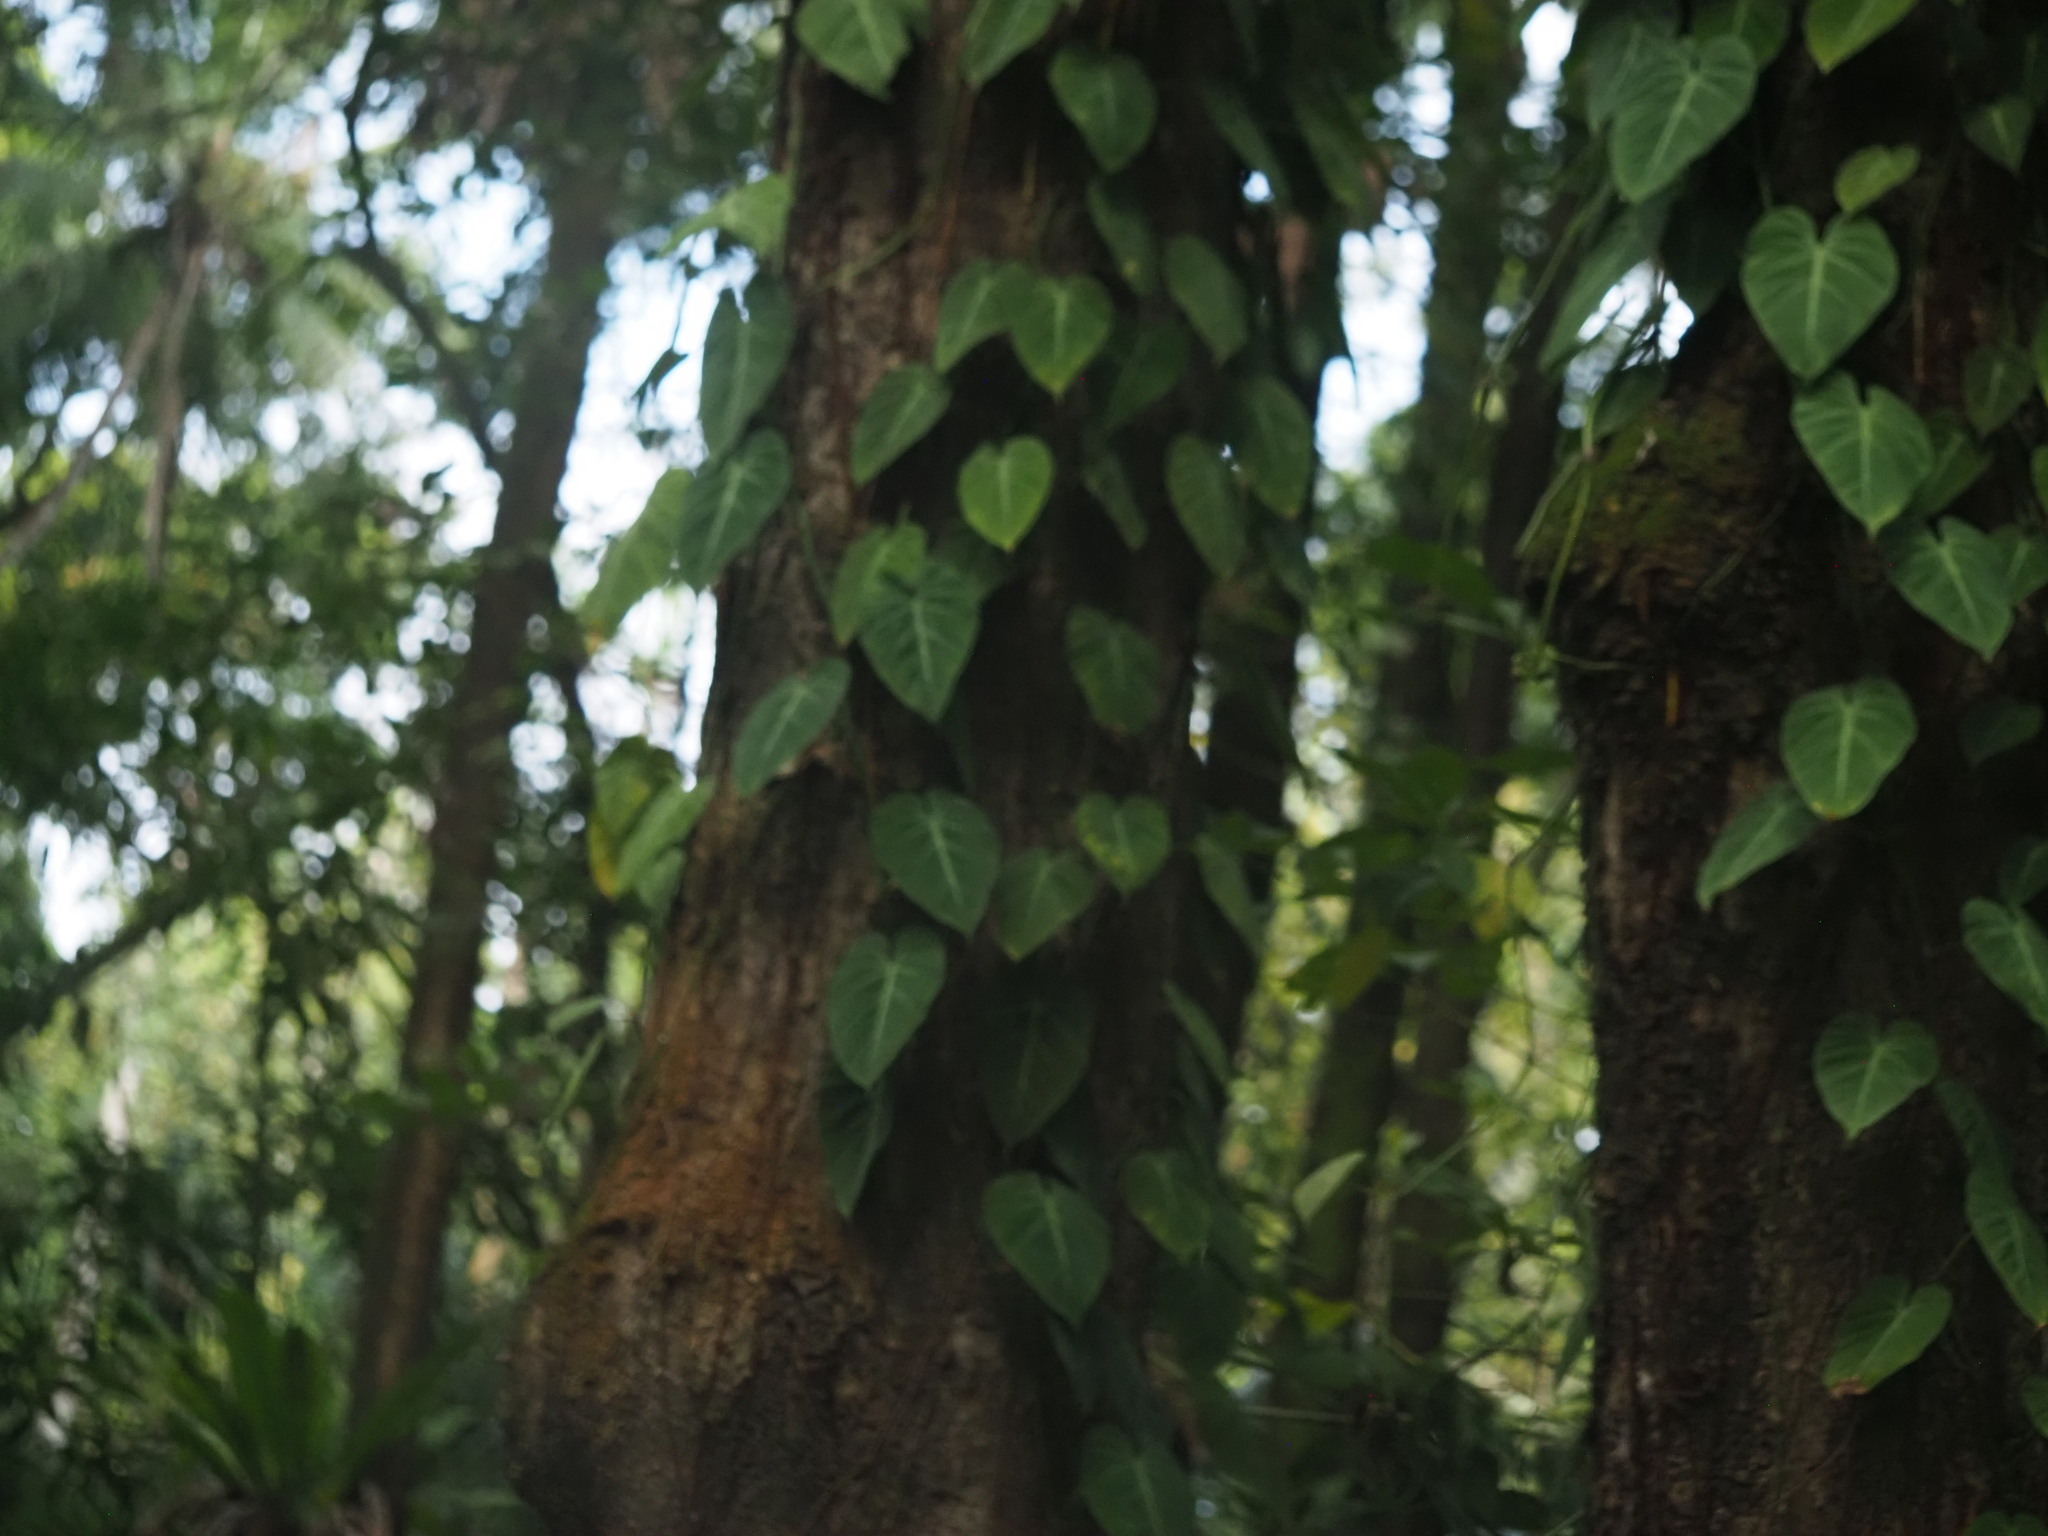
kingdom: Plantae
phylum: Tracheophyta
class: Liliopsida
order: Alismatales
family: Araceae
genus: Philodendron
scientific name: Philodendron hederaceum
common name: Vilevine
